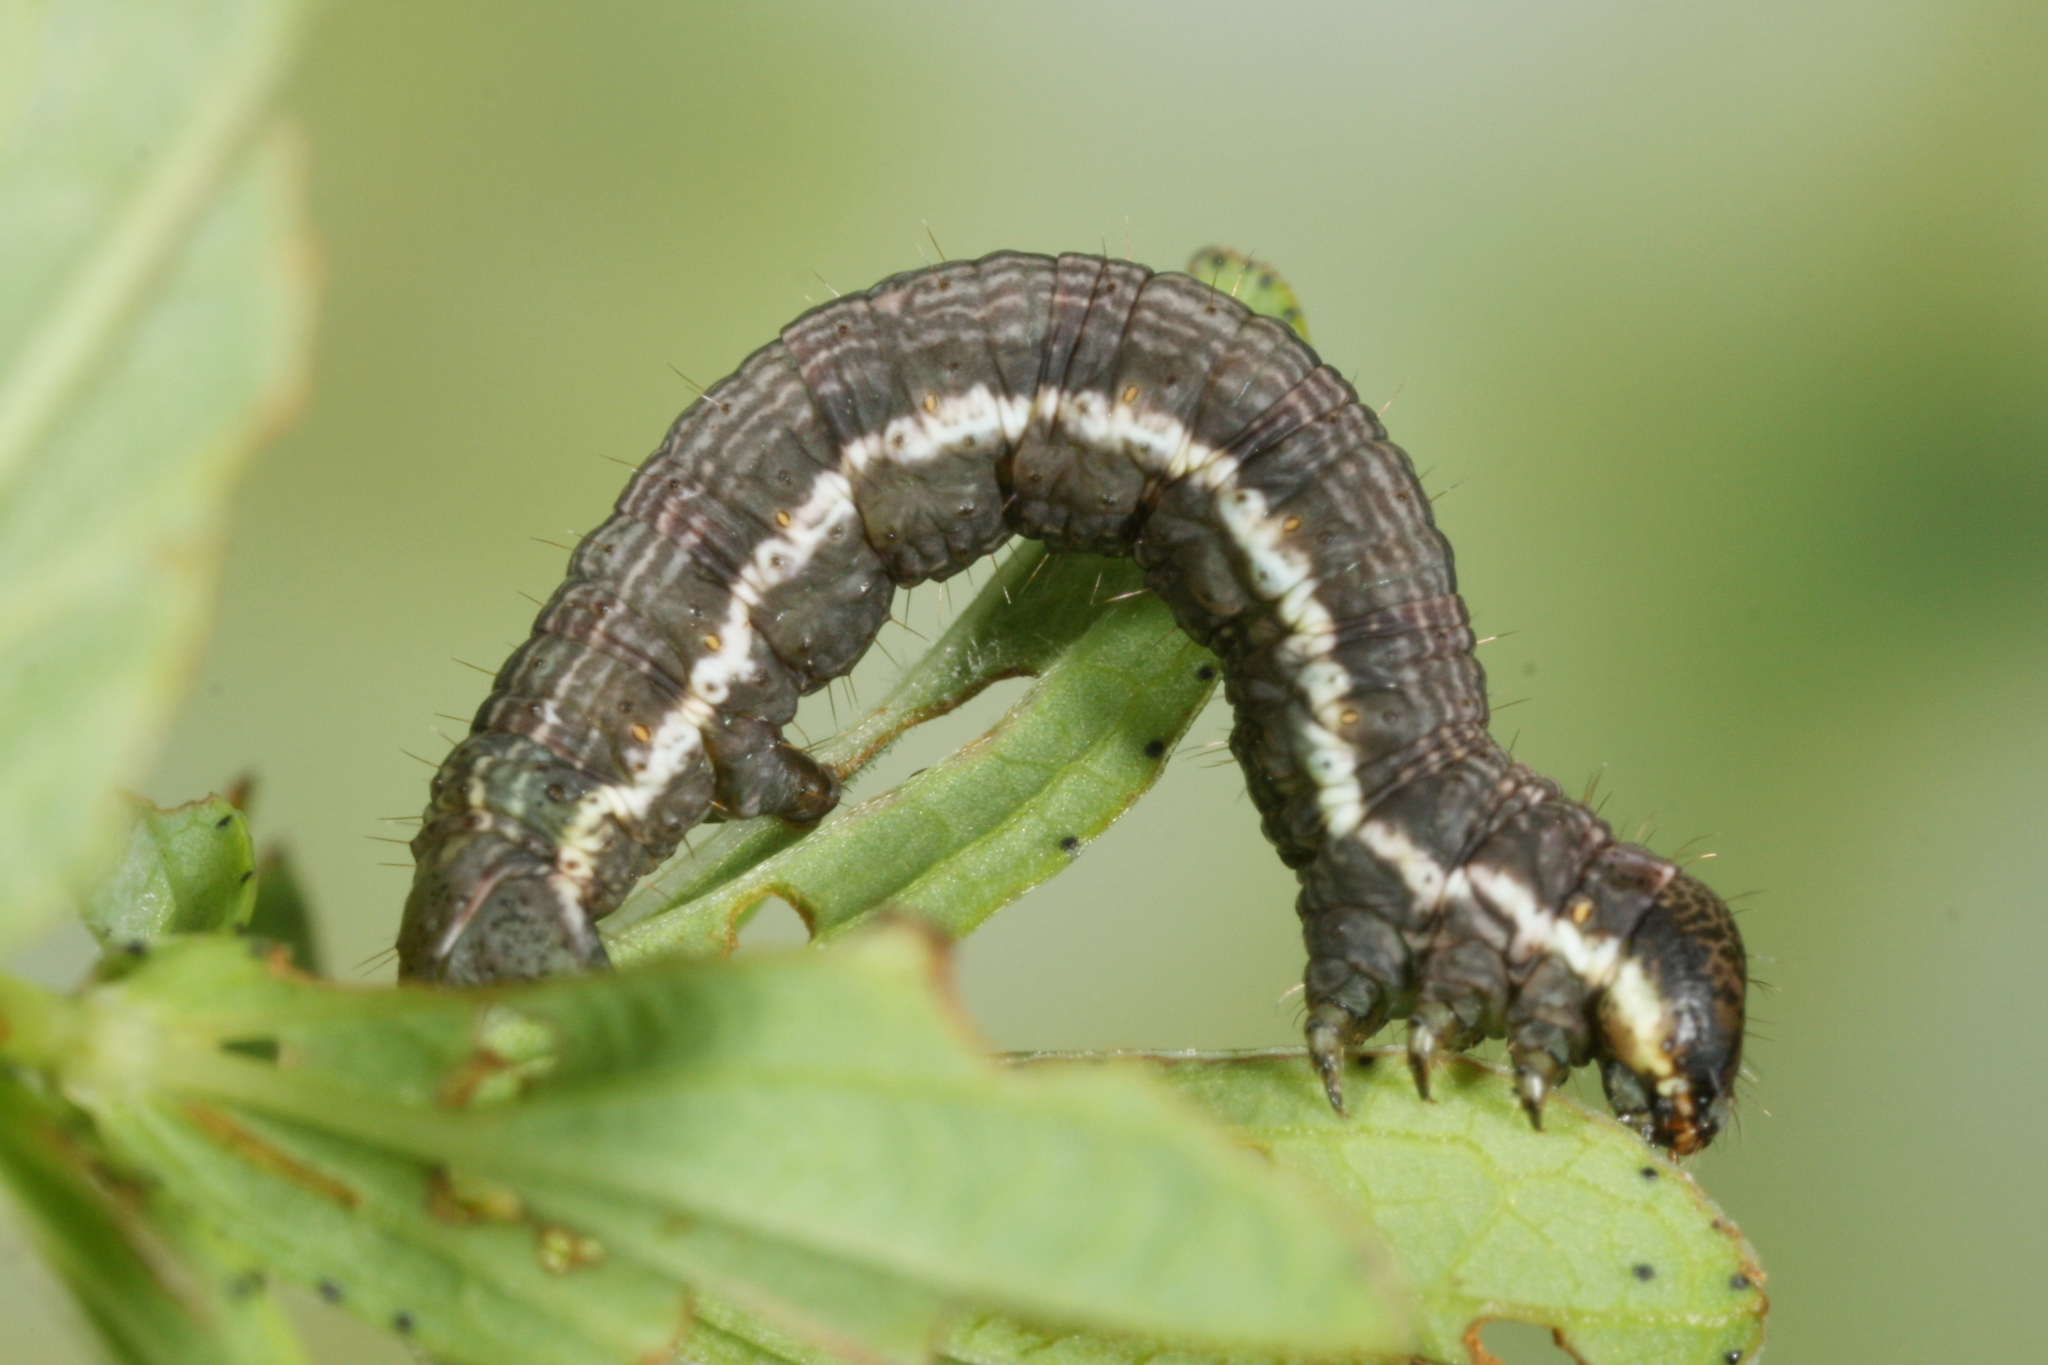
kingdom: Animalia
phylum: Arthropoda
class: Insecta
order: Lepidoptera
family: Geometridae
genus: Chiasmia
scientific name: Chiasmia clathrata
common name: Latticed heath
